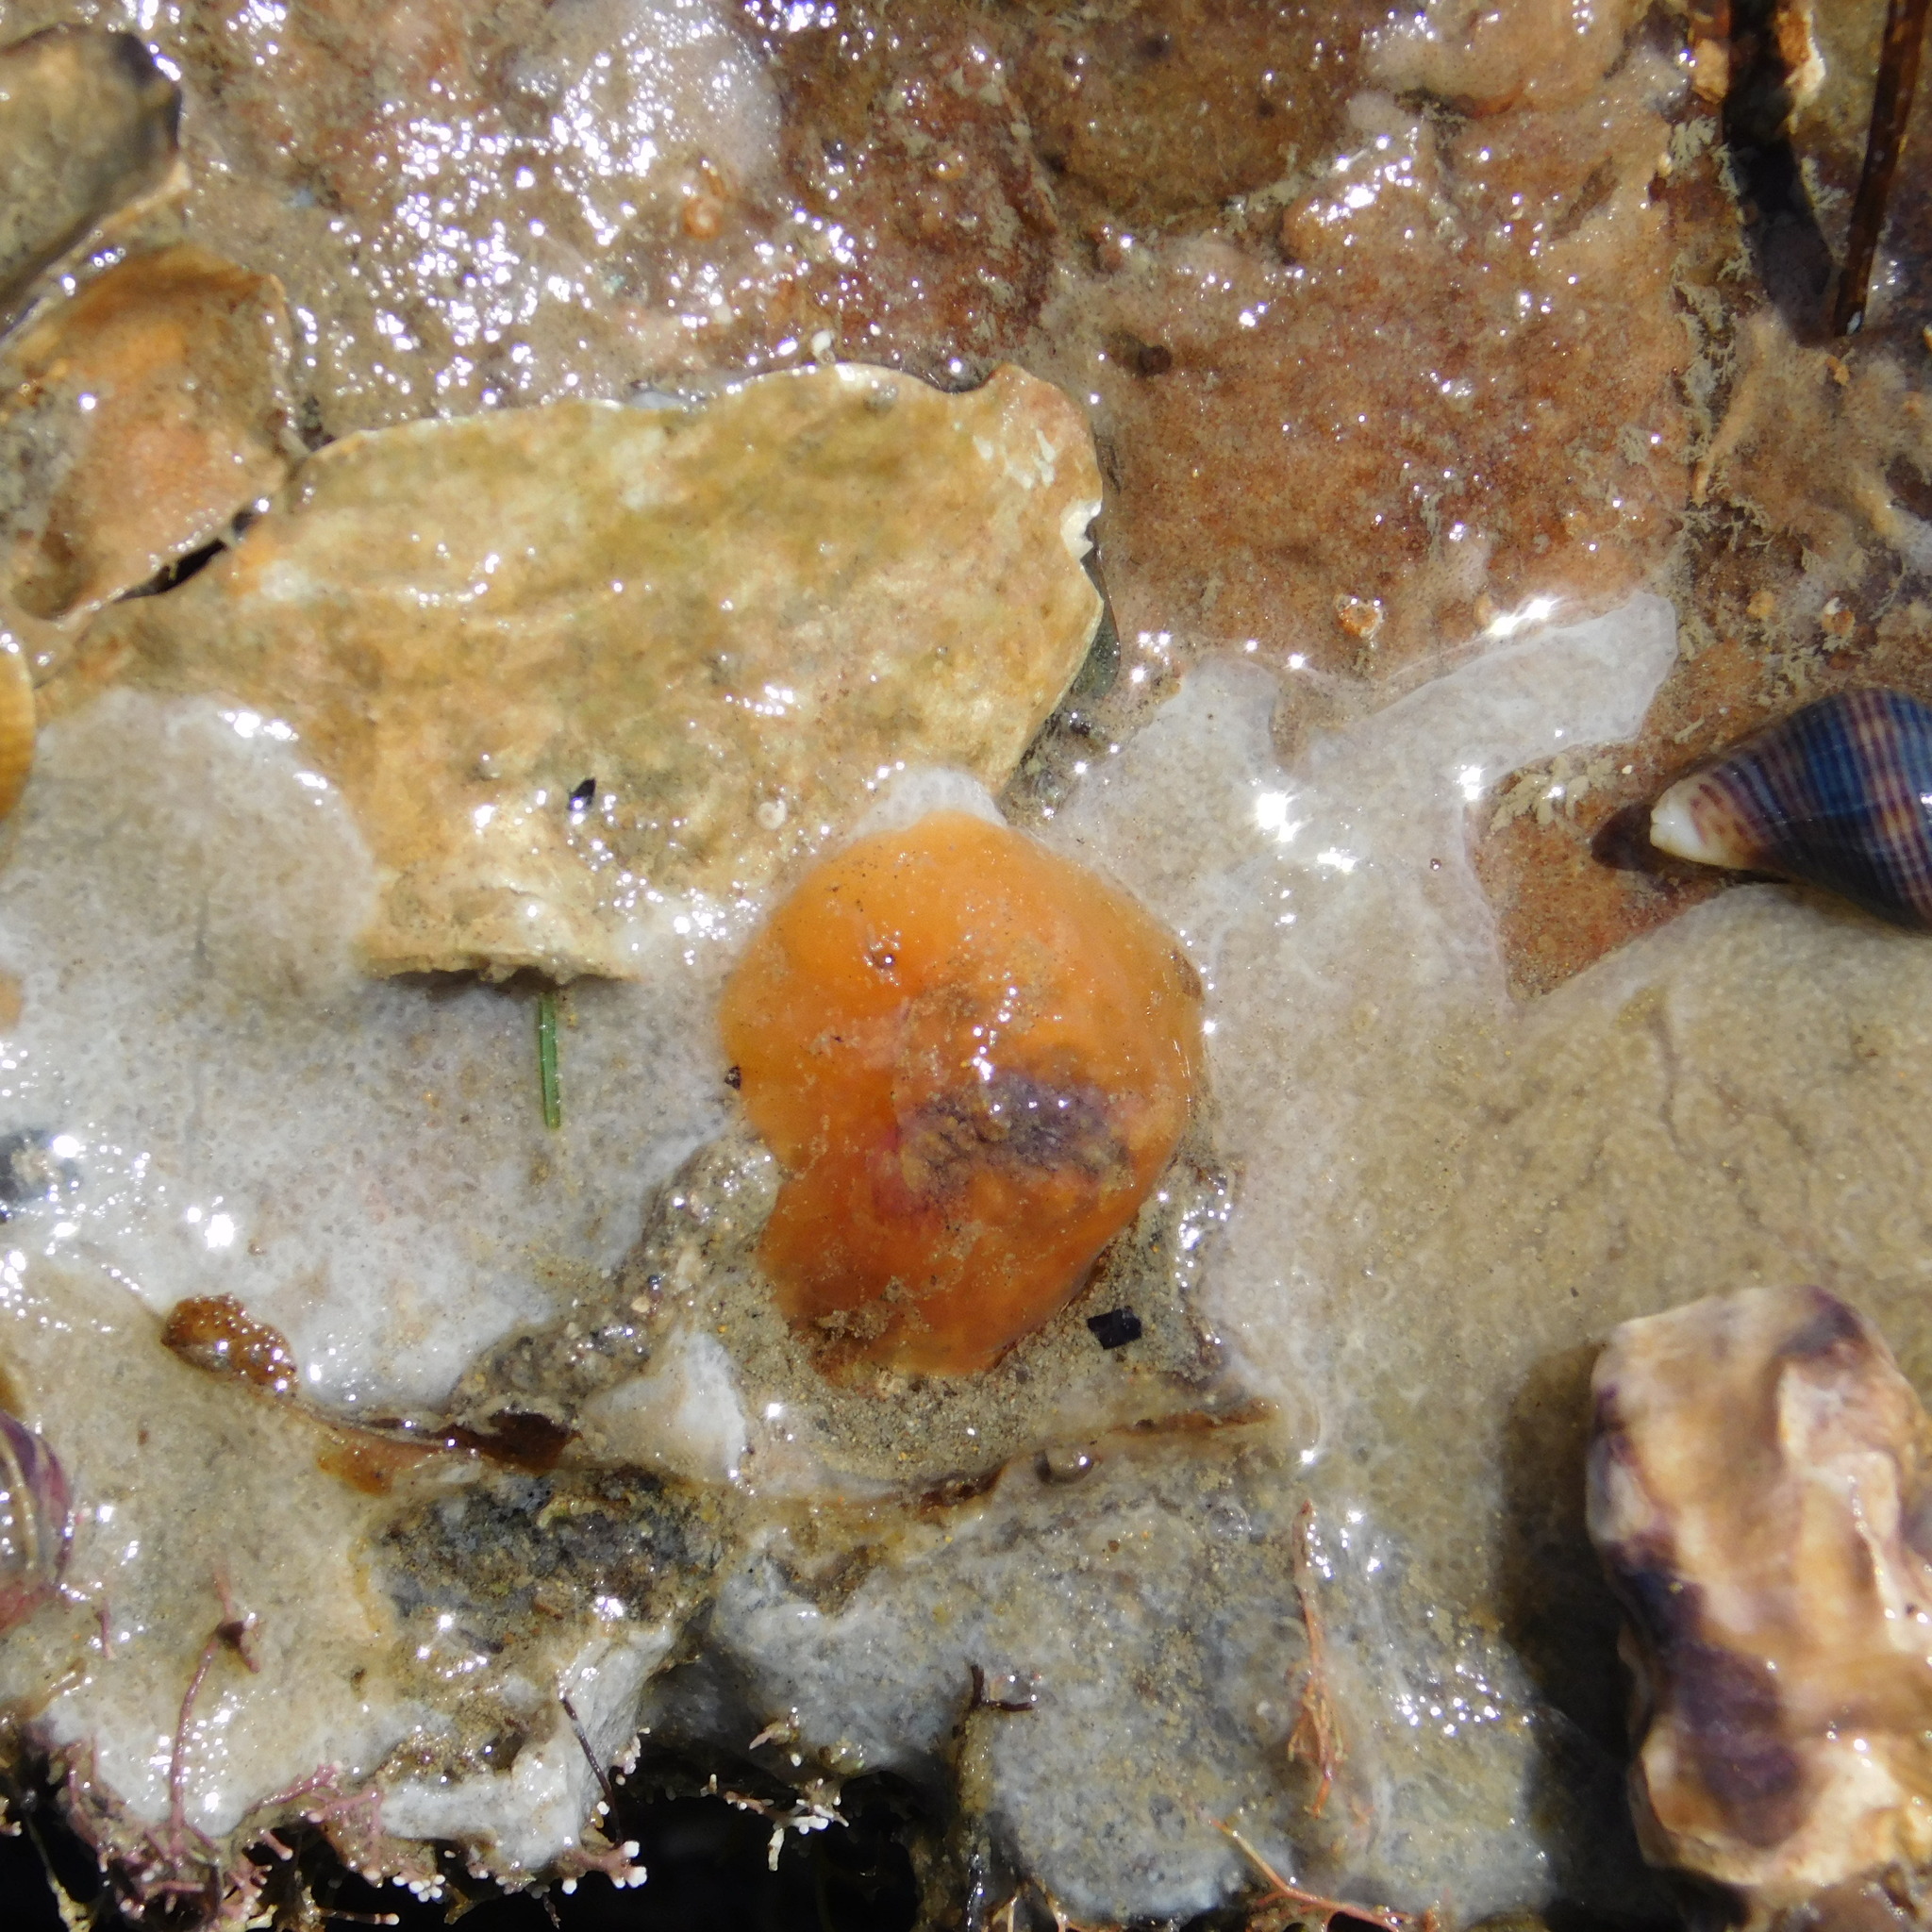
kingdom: Animalia
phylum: Mollusca
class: Gastropoda
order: Littorinimorpha
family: Velutinidae
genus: Lamellaria
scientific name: Lamellaria ophione
